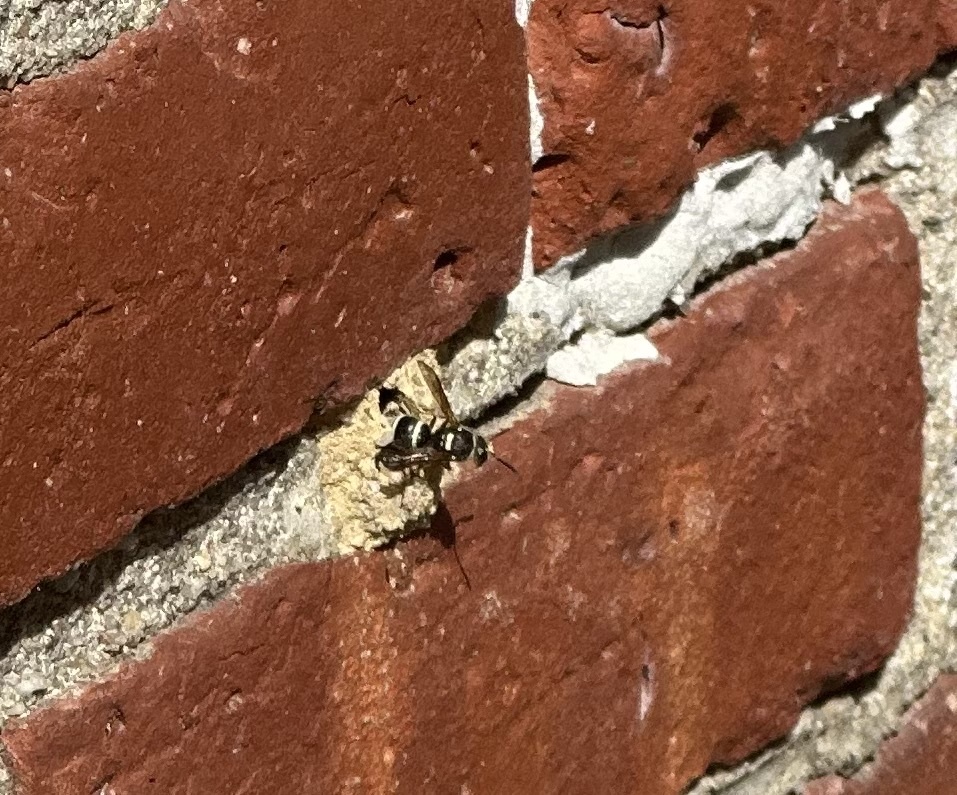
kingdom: Animalia
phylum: Arthropoda
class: Insecta
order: Hymenoptera
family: Vespidae
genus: Ancistrocerus
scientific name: Ancistrocerus waldenii
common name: Walden’s potter wasp
